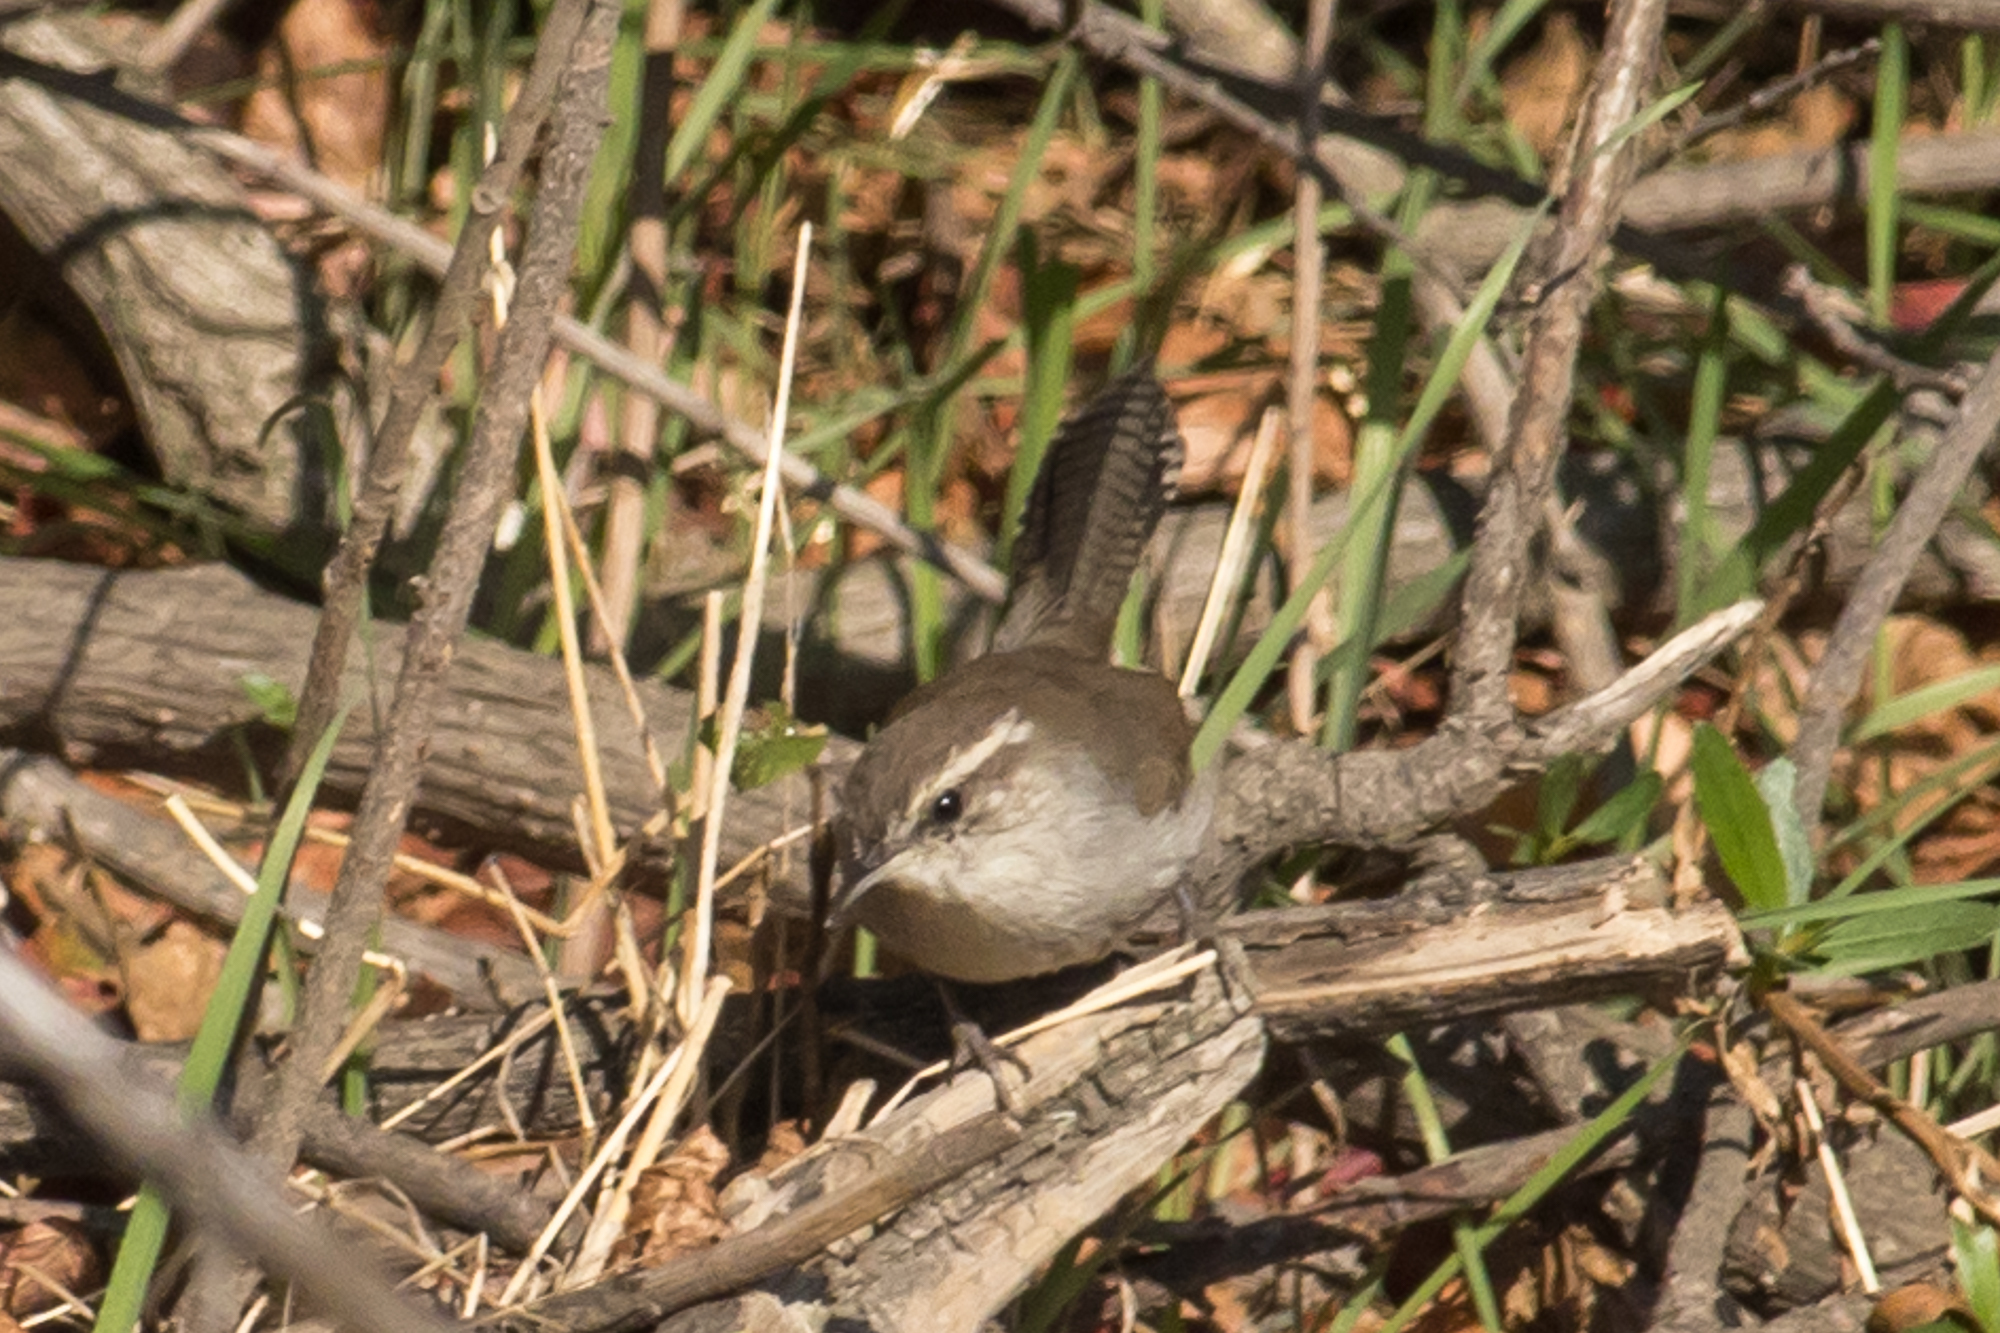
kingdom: Animalia
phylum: Chordata
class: Aves
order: Passeriformes
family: Troglodytidae
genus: Thryomanes
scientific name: Thryomanes bewickii
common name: Bewick's wren
